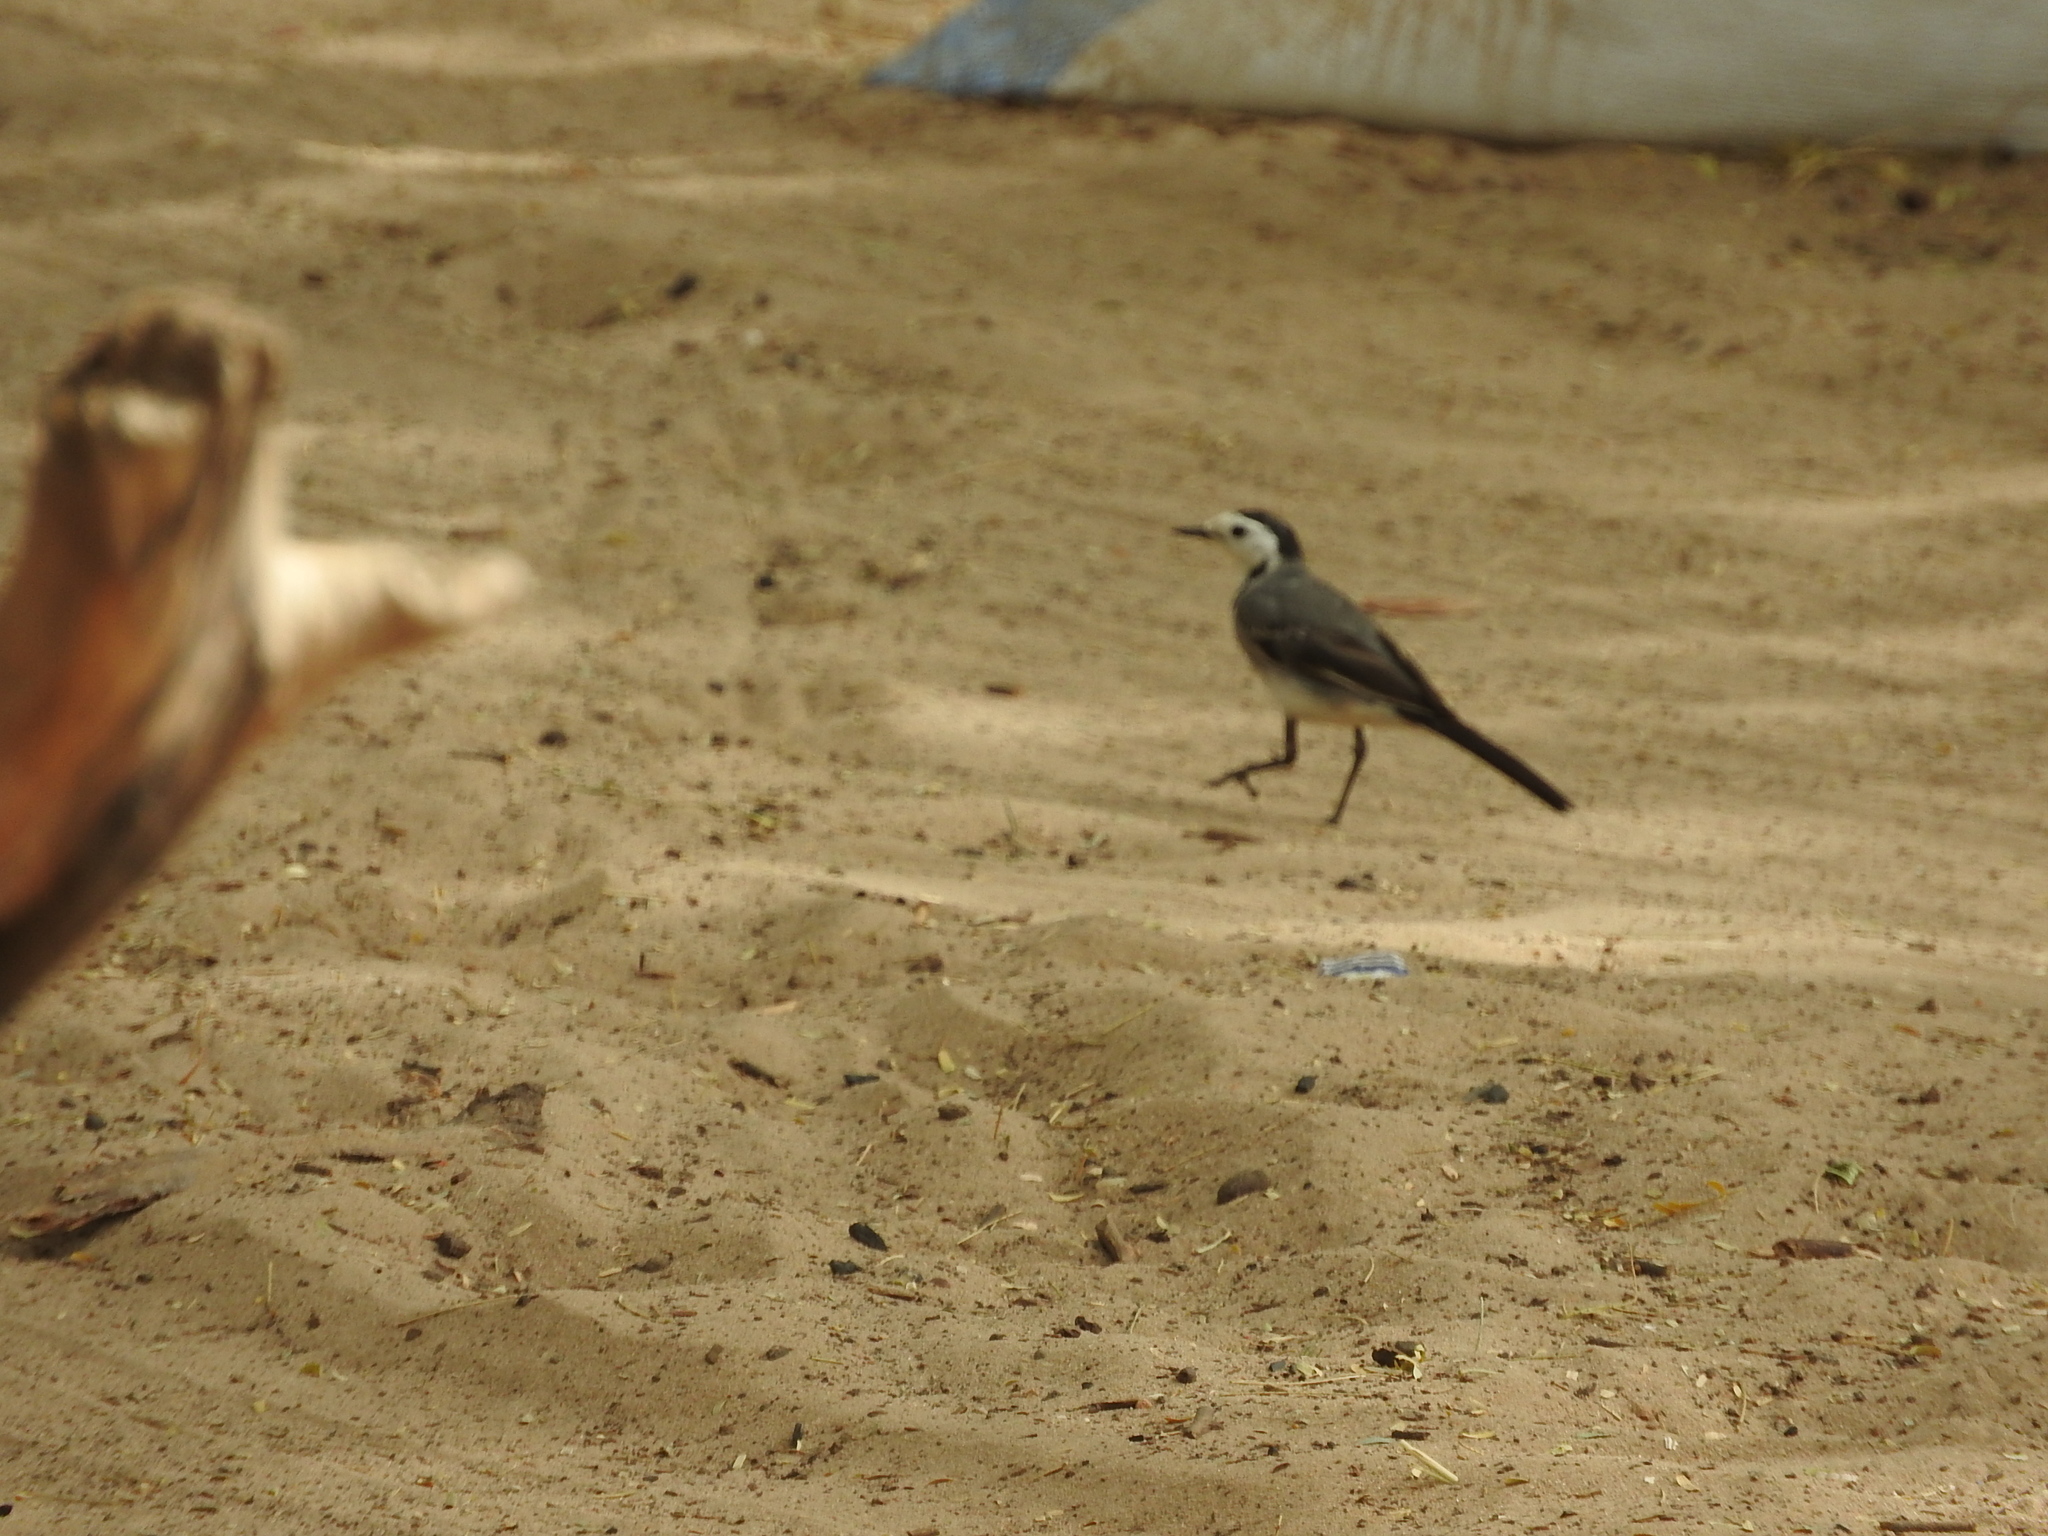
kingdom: Animalia
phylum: Chordata
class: Aves
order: Passeriformes
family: Motacillidae
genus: Motacilla
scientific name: Motacilla alba
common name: White wagtail
